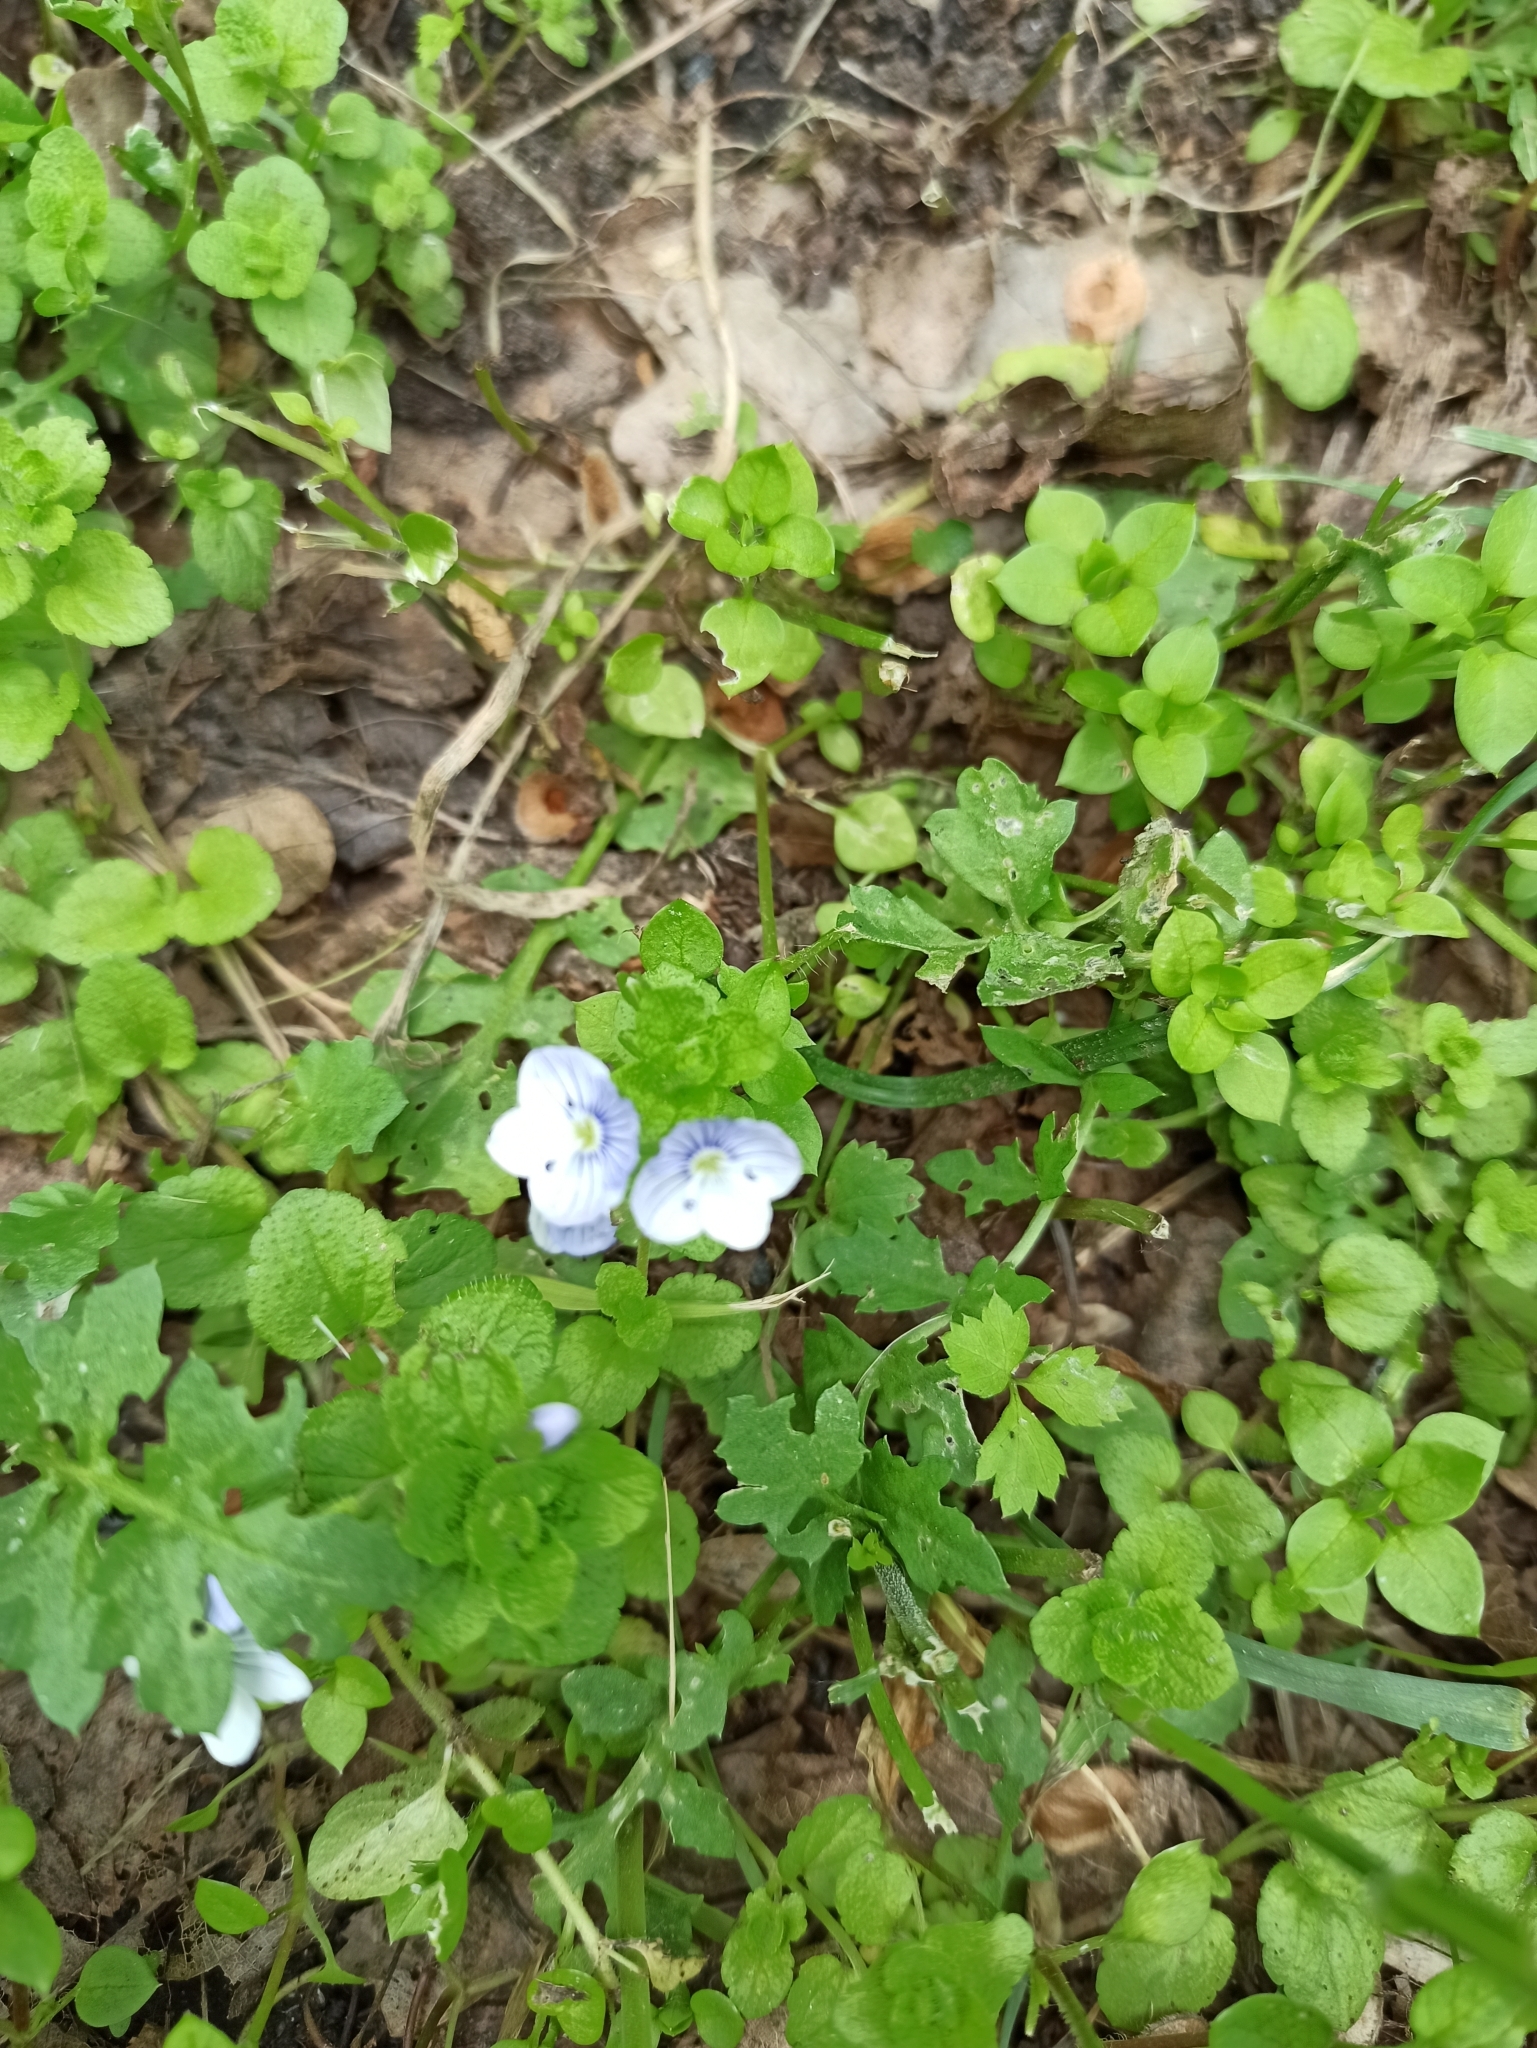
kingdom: Plantae
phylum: Tracheophyta
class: Magnoliopsida
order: Lamiales
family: Plantaginaceae
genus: Veronica
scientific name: Veronica filiformis
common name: Slender speedwell
